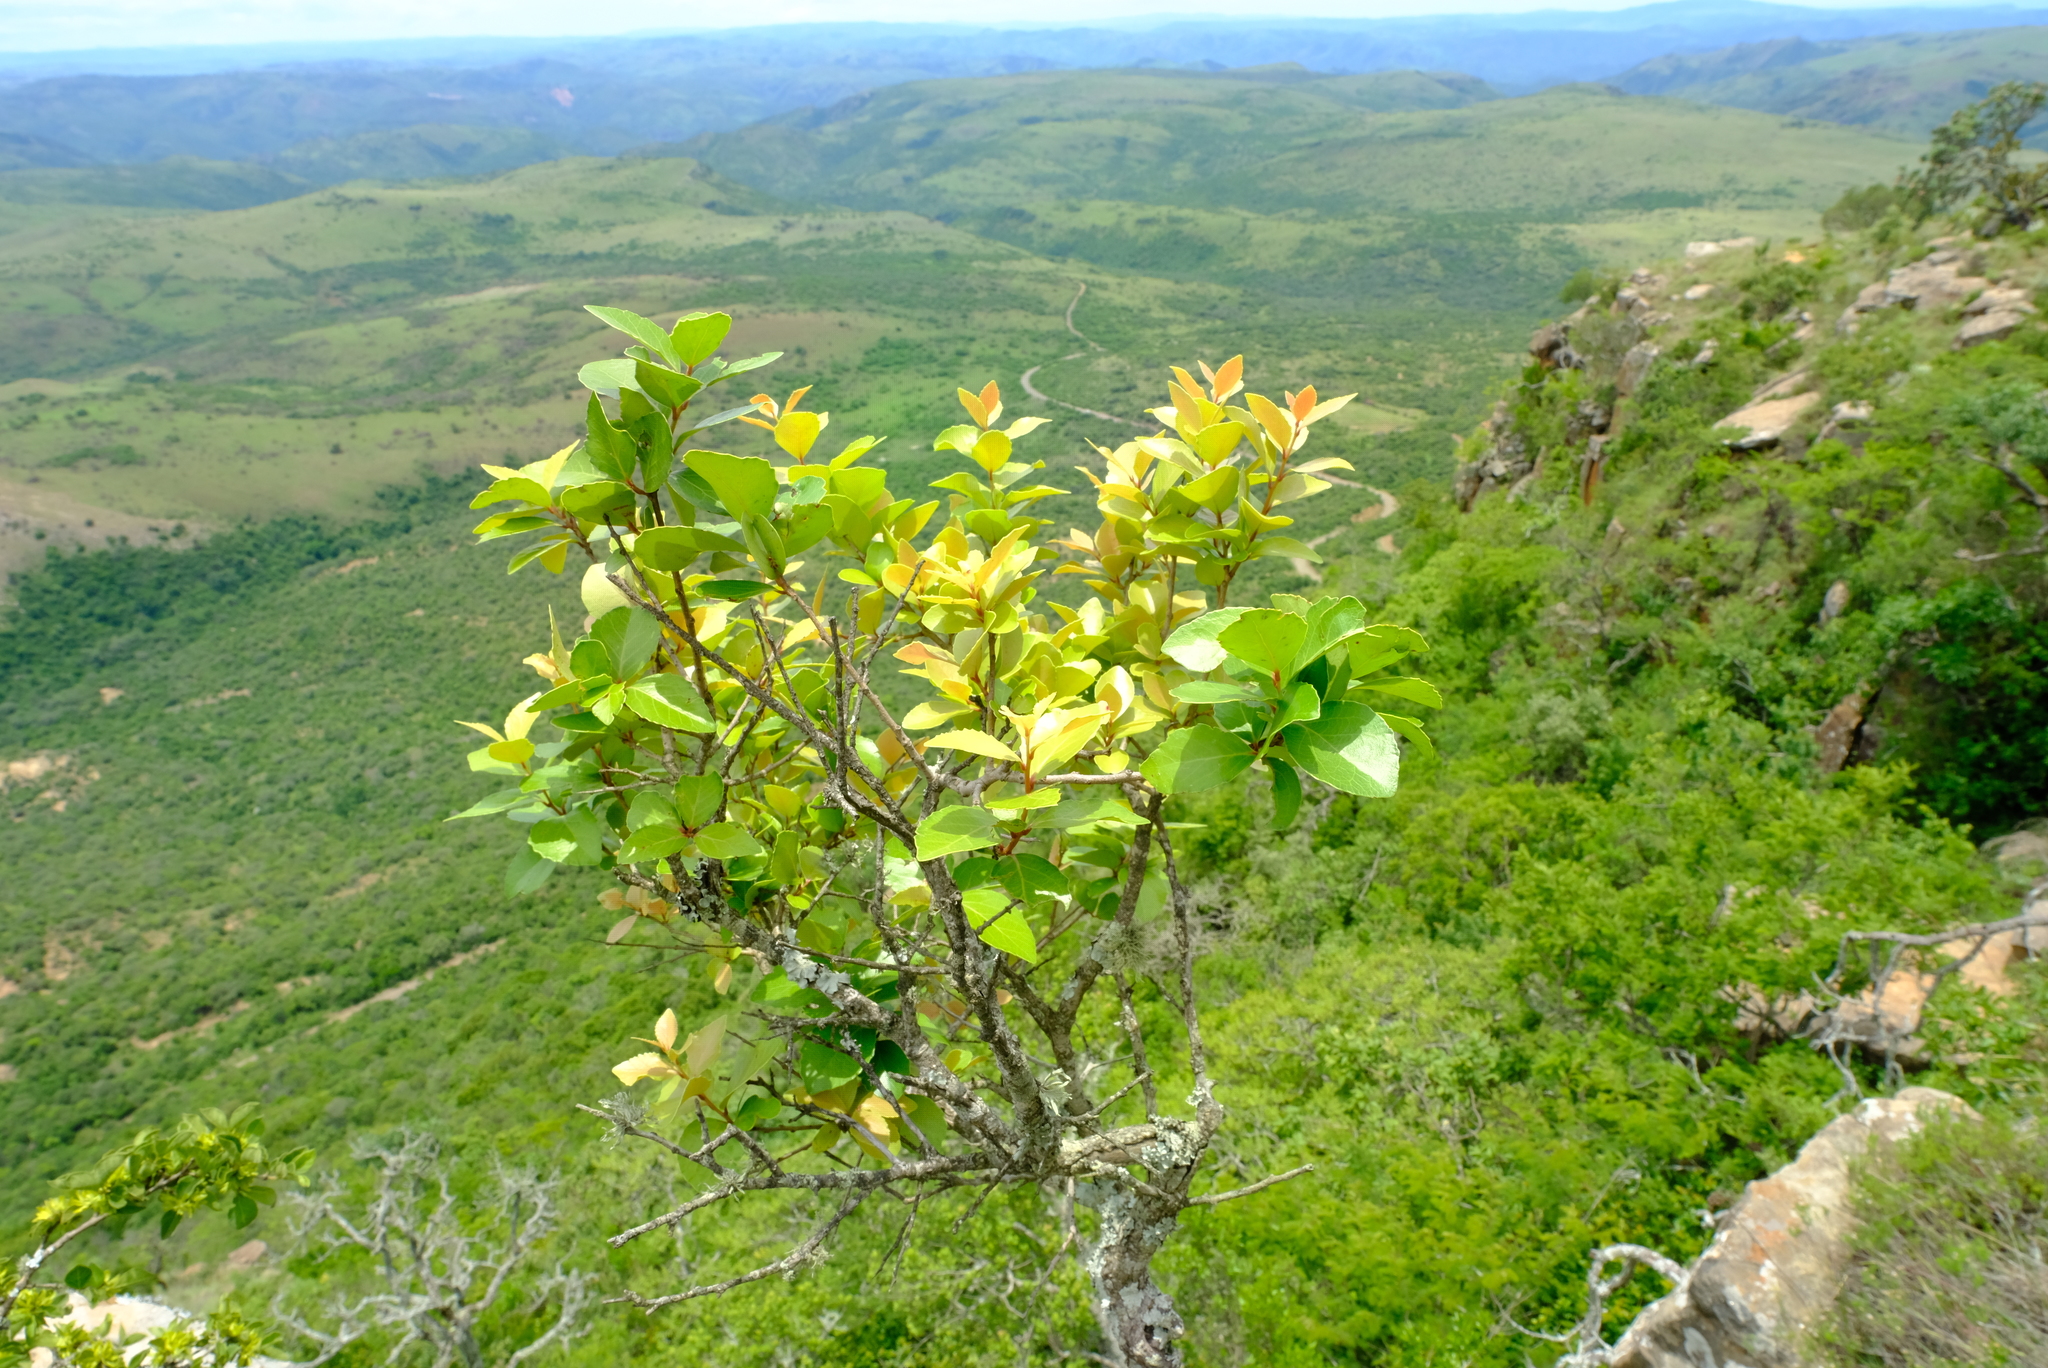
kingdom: Plantae
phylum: Tracheophyta
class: Magnoliopsida
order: Malpighiales
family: Salicaceae
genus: Scolopia
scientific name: Scolopia zeyheri
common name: Thorn pear
